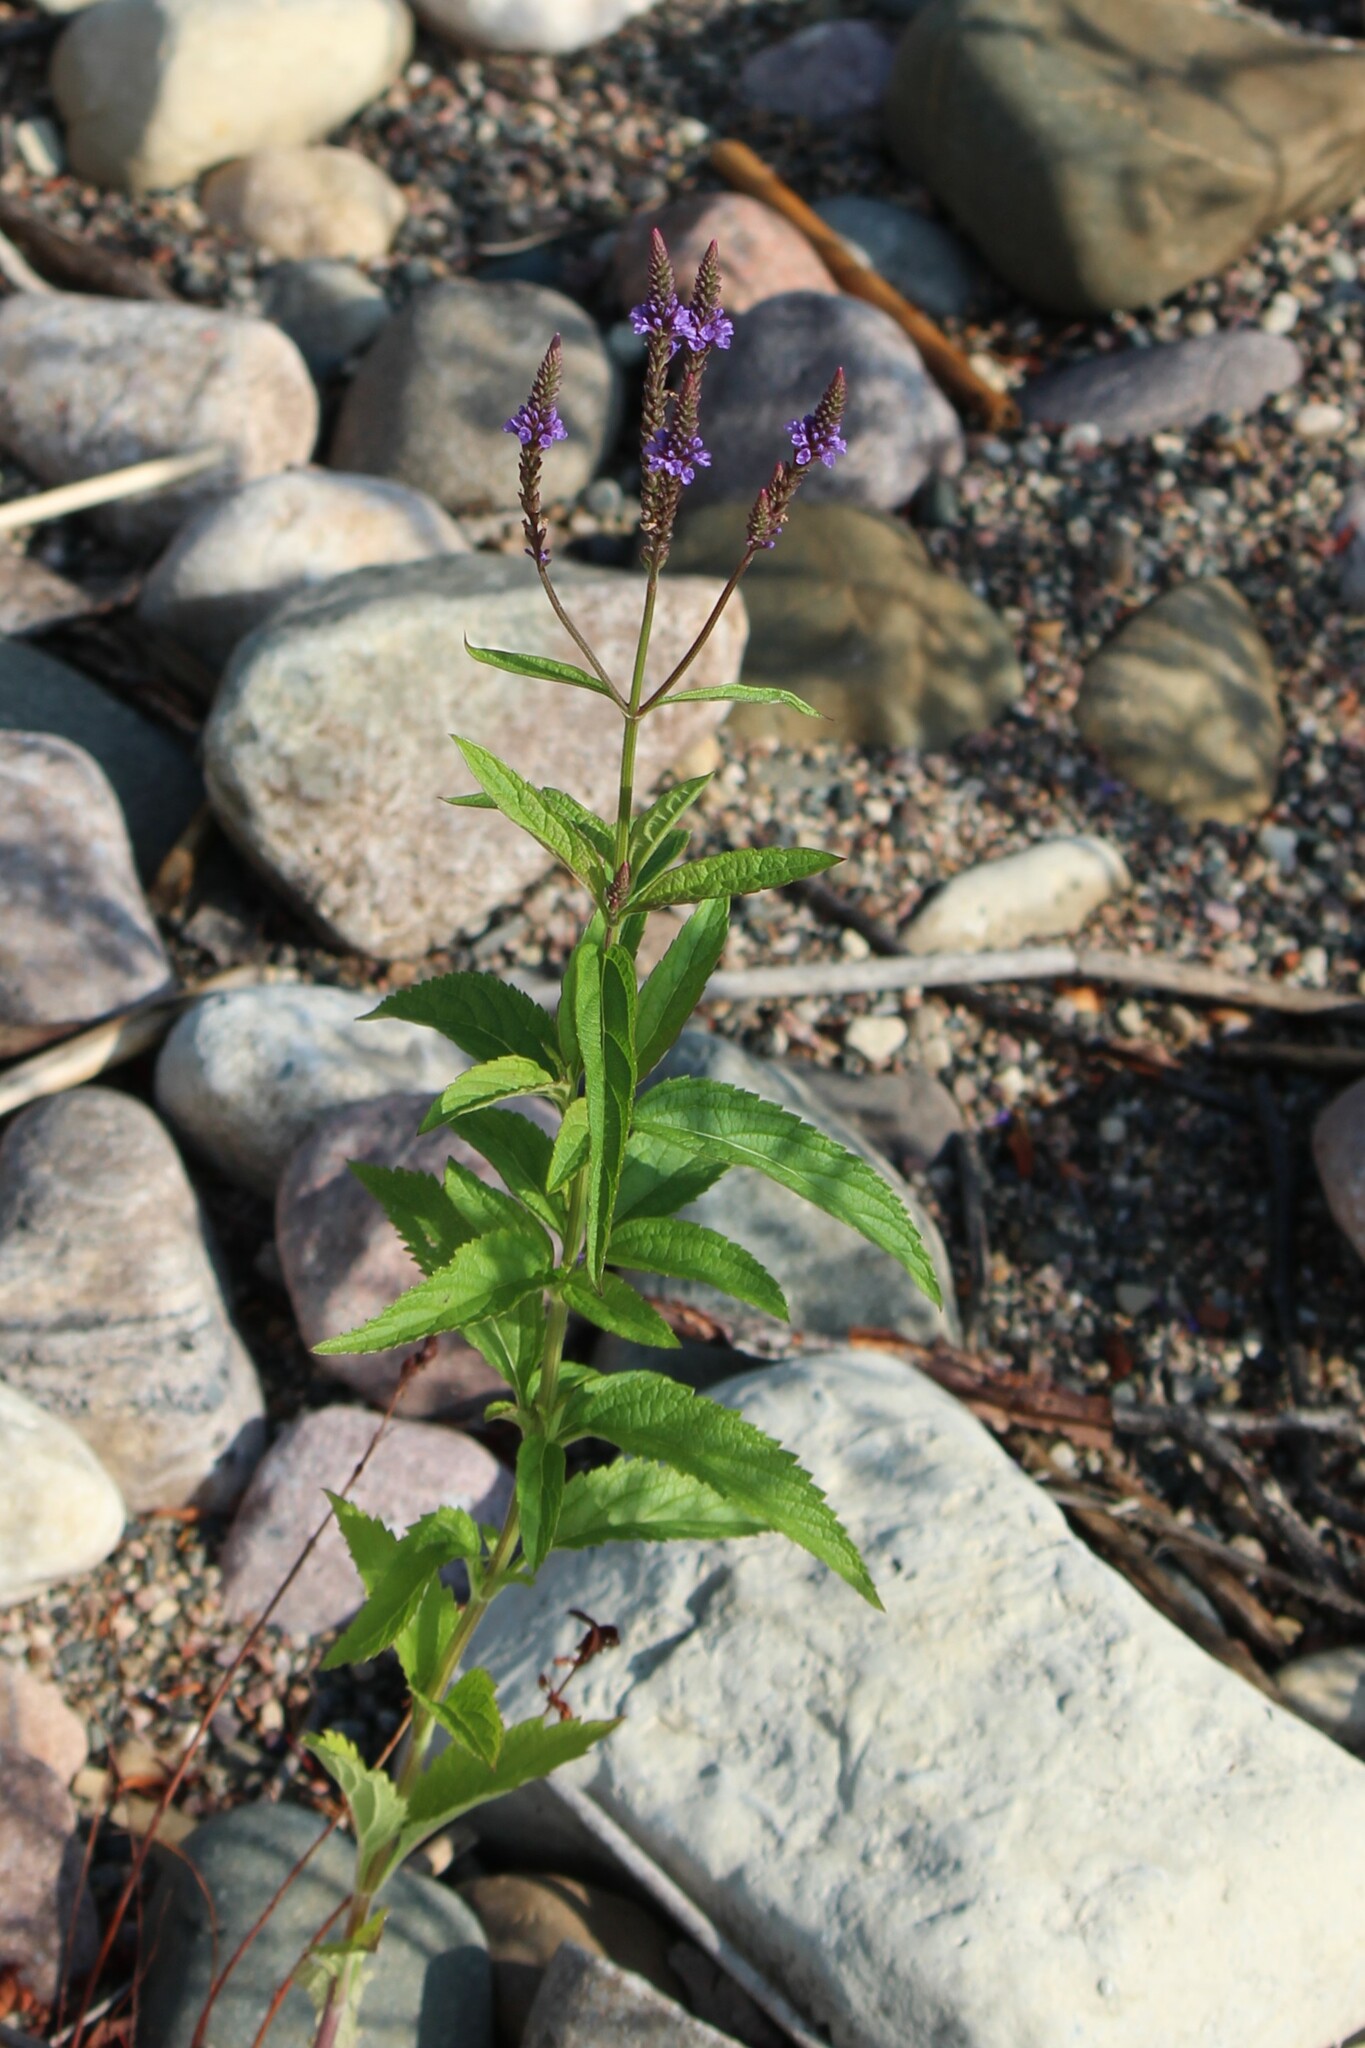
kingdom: Plantae
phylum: Tracheophyta
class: Magnoliopsida
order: Lamiales
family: Verbenaceae
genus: Verbena
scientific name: Verbena hastata
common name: American blue vervain
